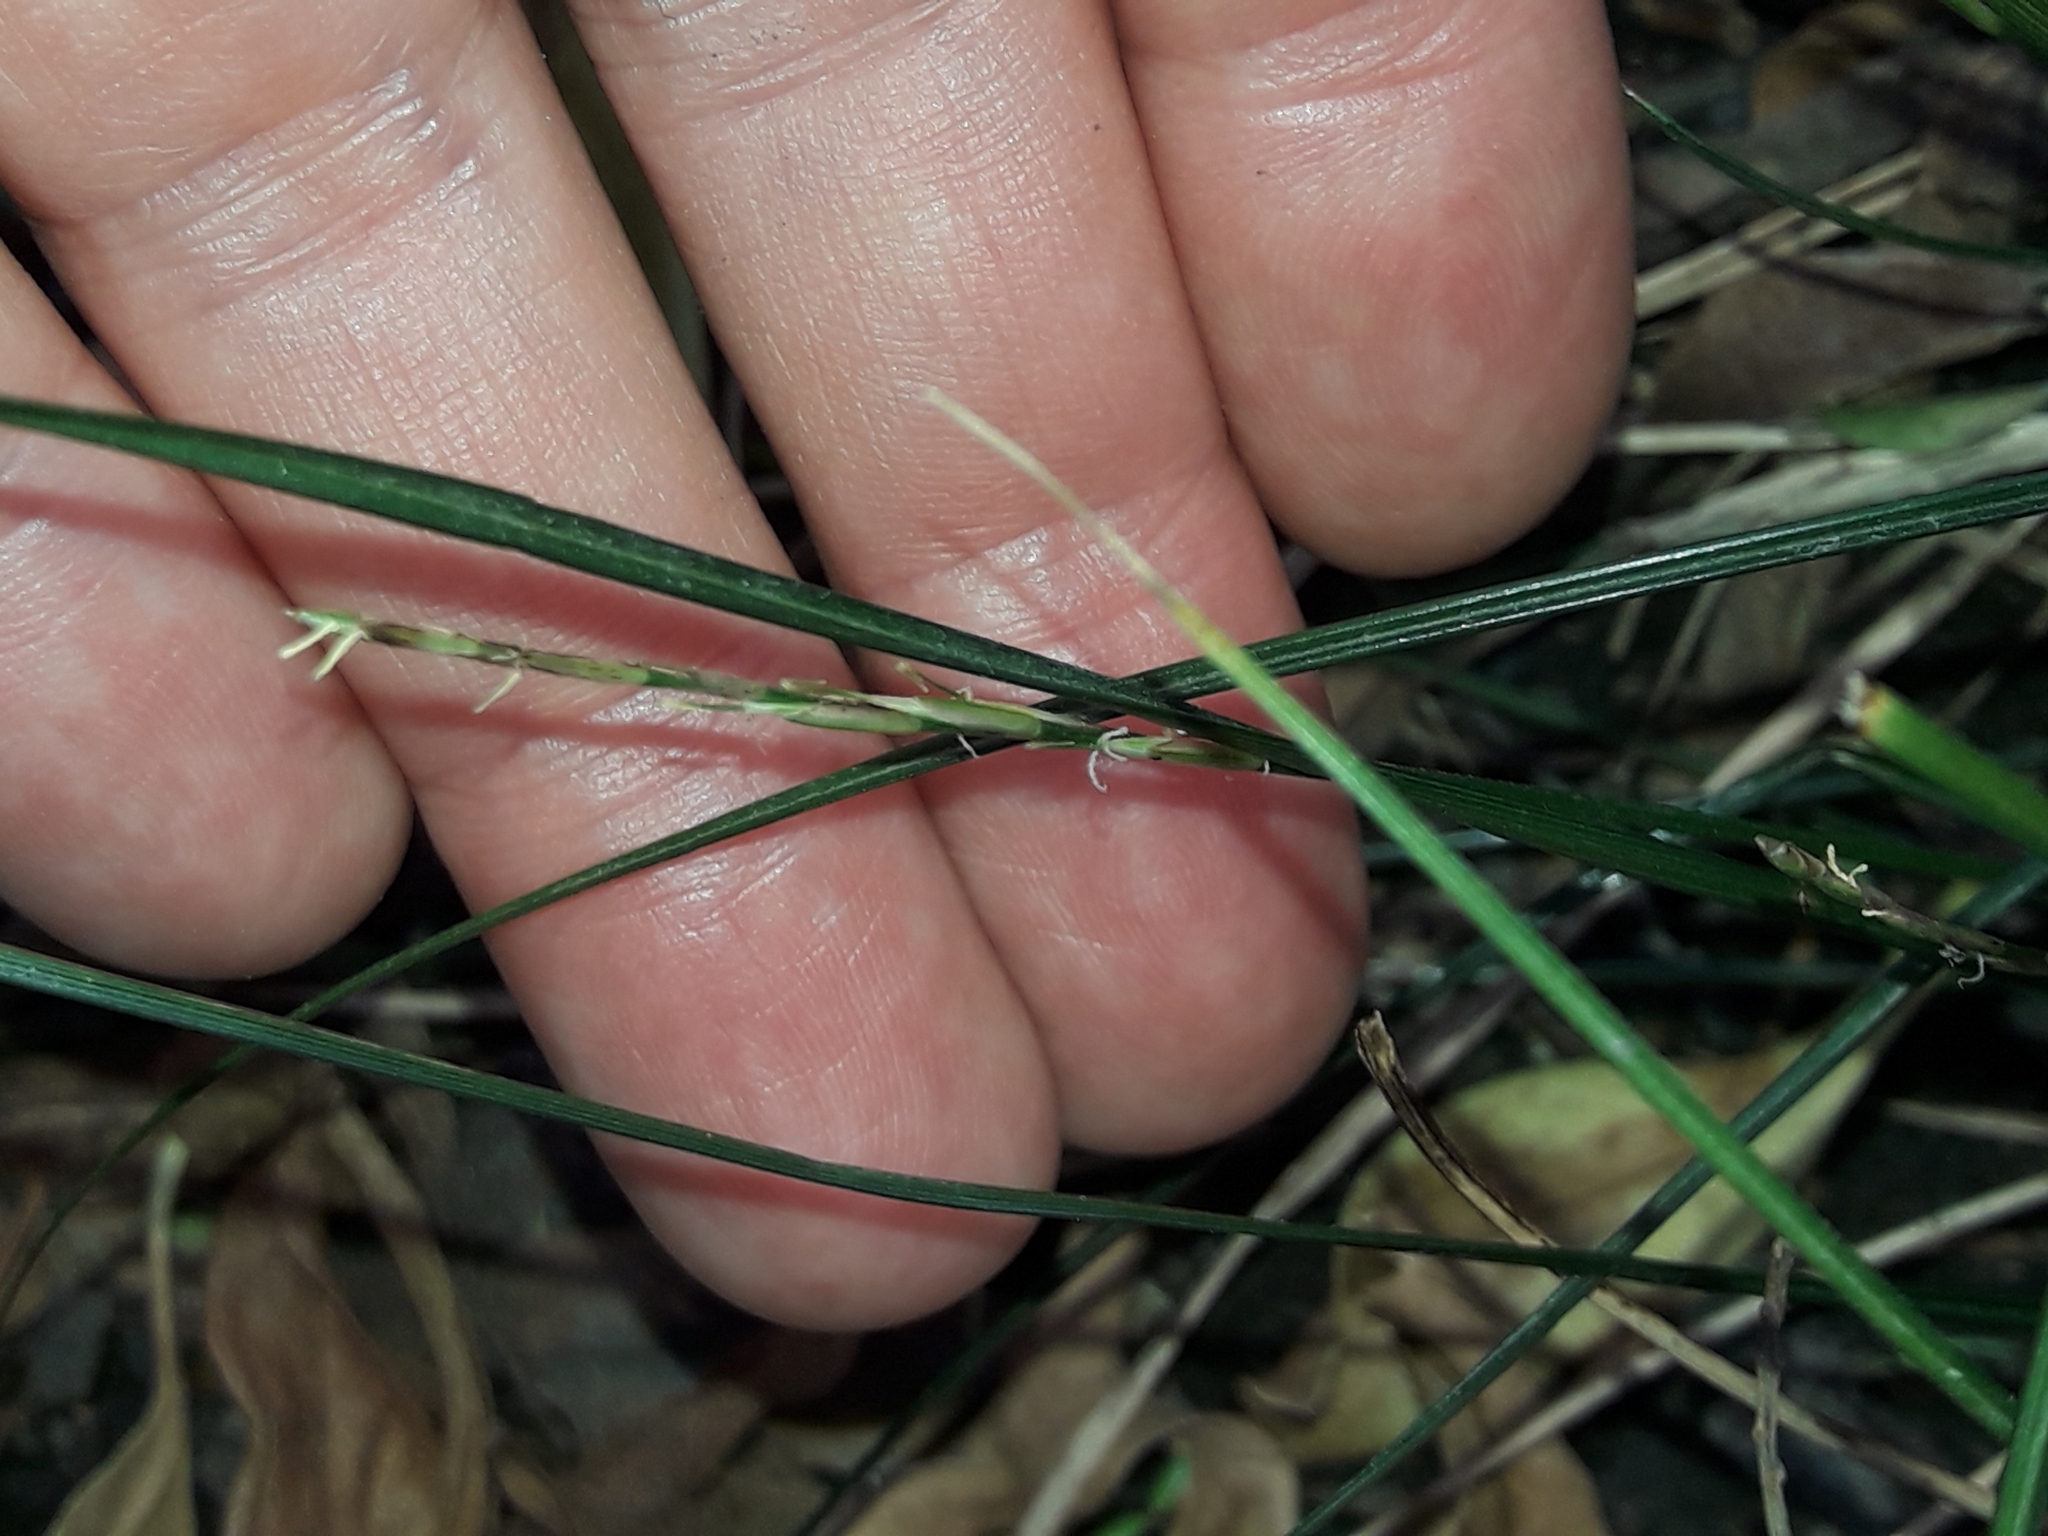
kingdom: Plantae
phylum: Tracheophyta
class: Liliopsida
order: Poales
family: Cyperaceae
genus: Carex
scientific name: Carex cyanea
